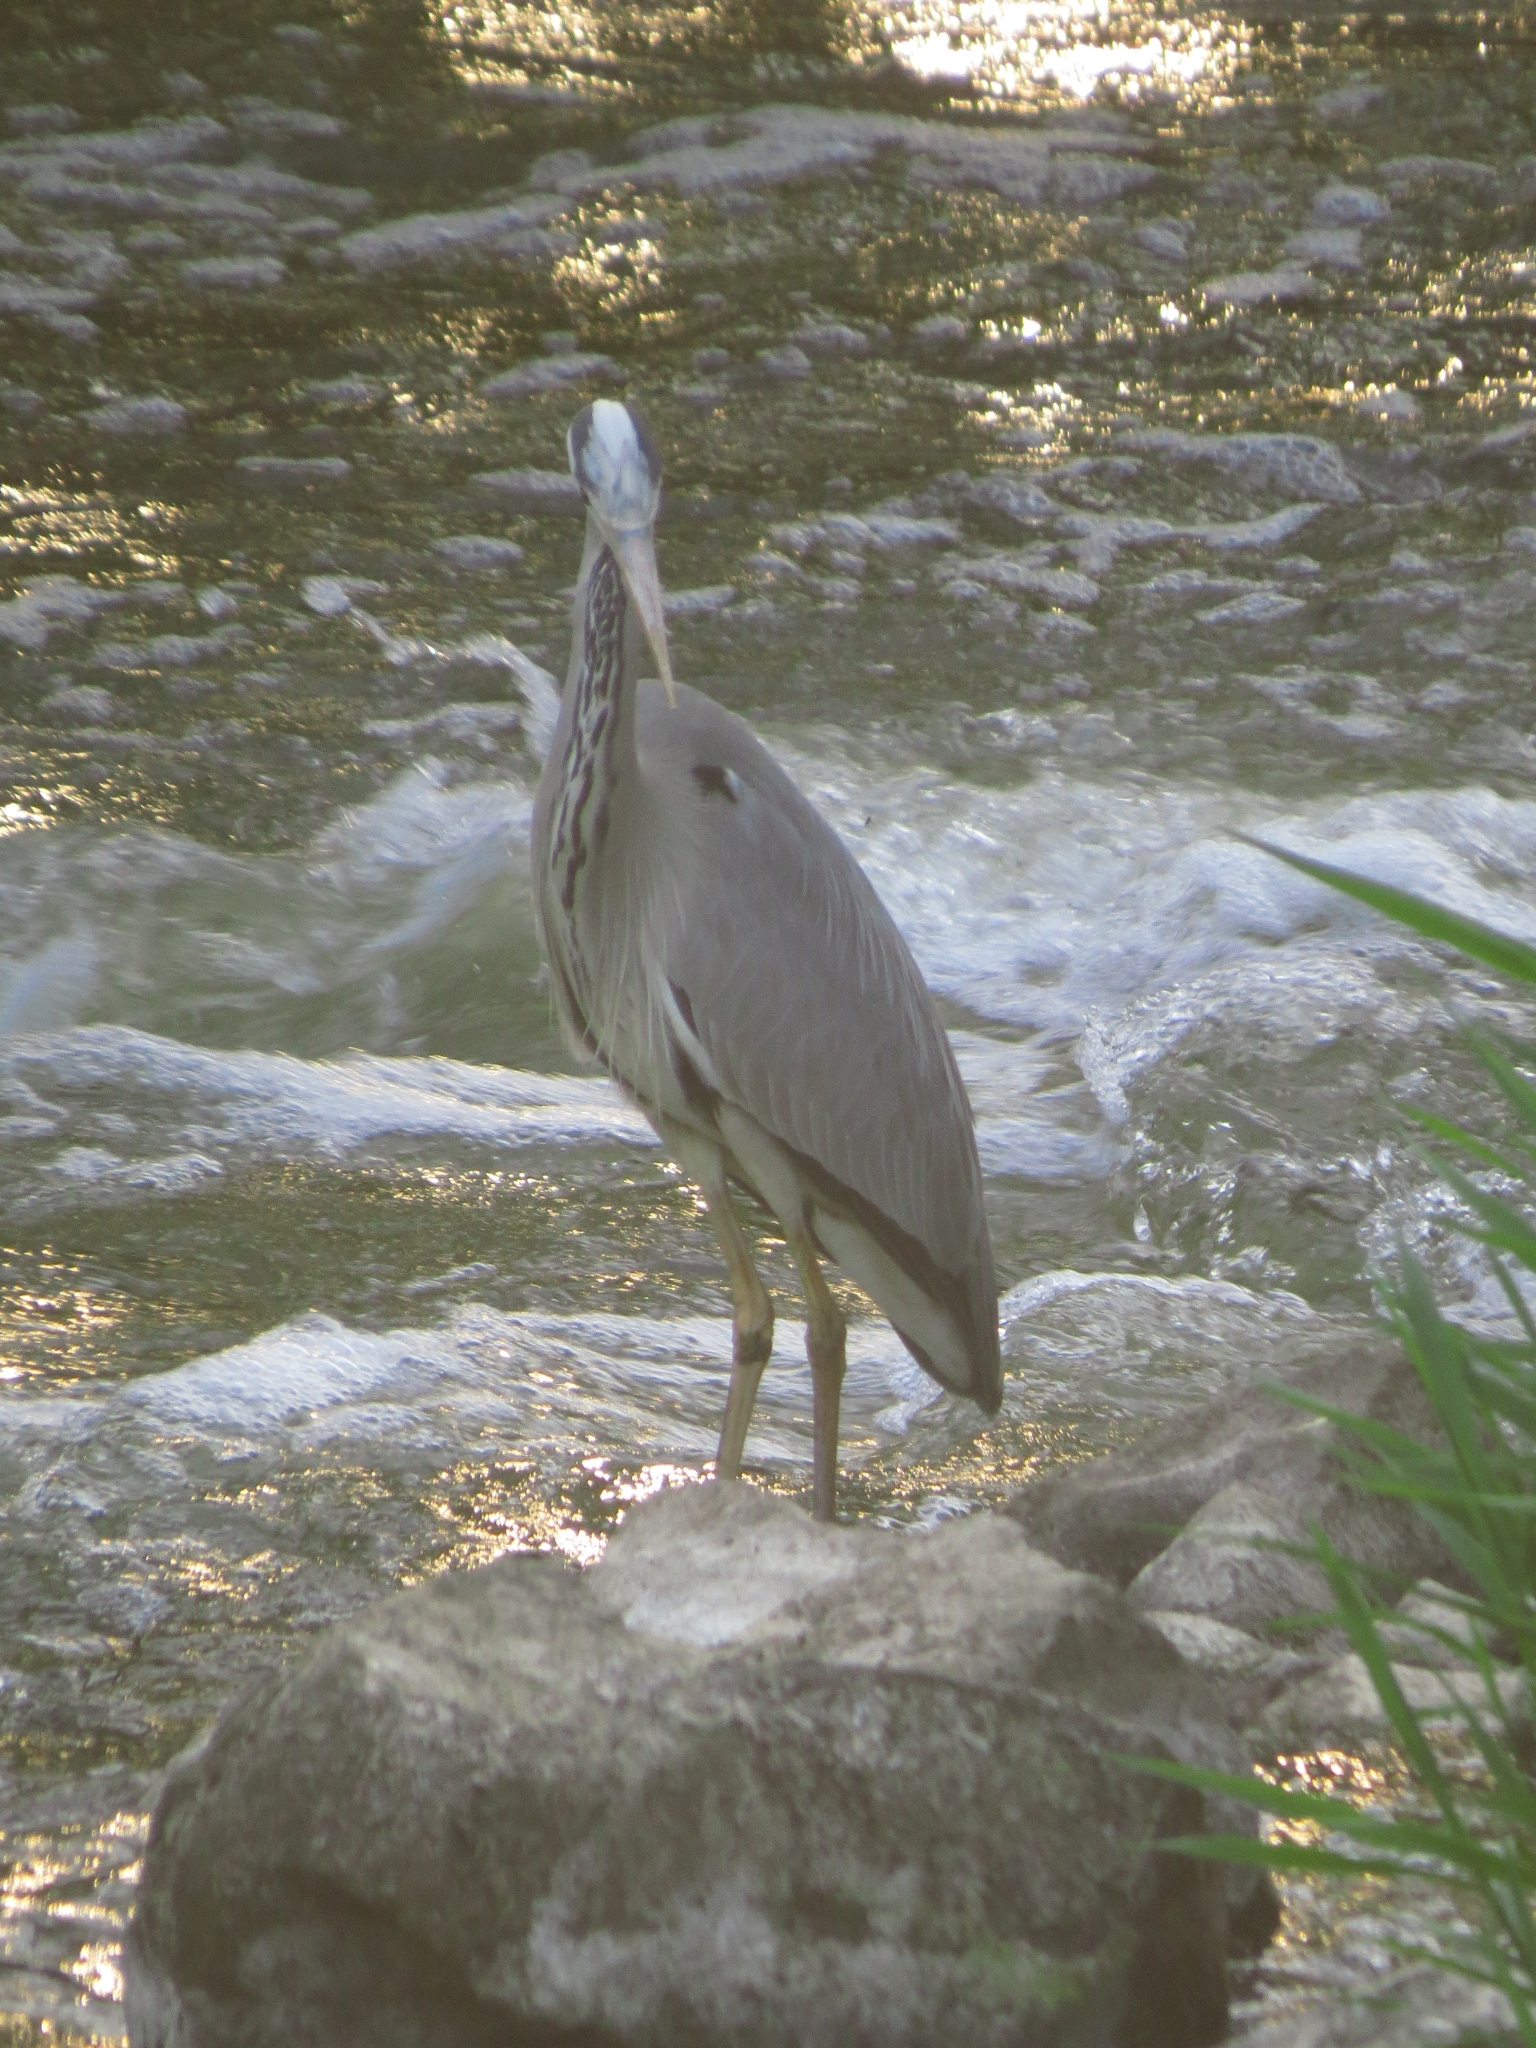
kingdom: Animalia
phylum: Chordata
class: Aves
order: Pelecaniformes
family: Ardeidae
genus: Ardea
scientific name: Ardea cinerea
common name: Grey heron
